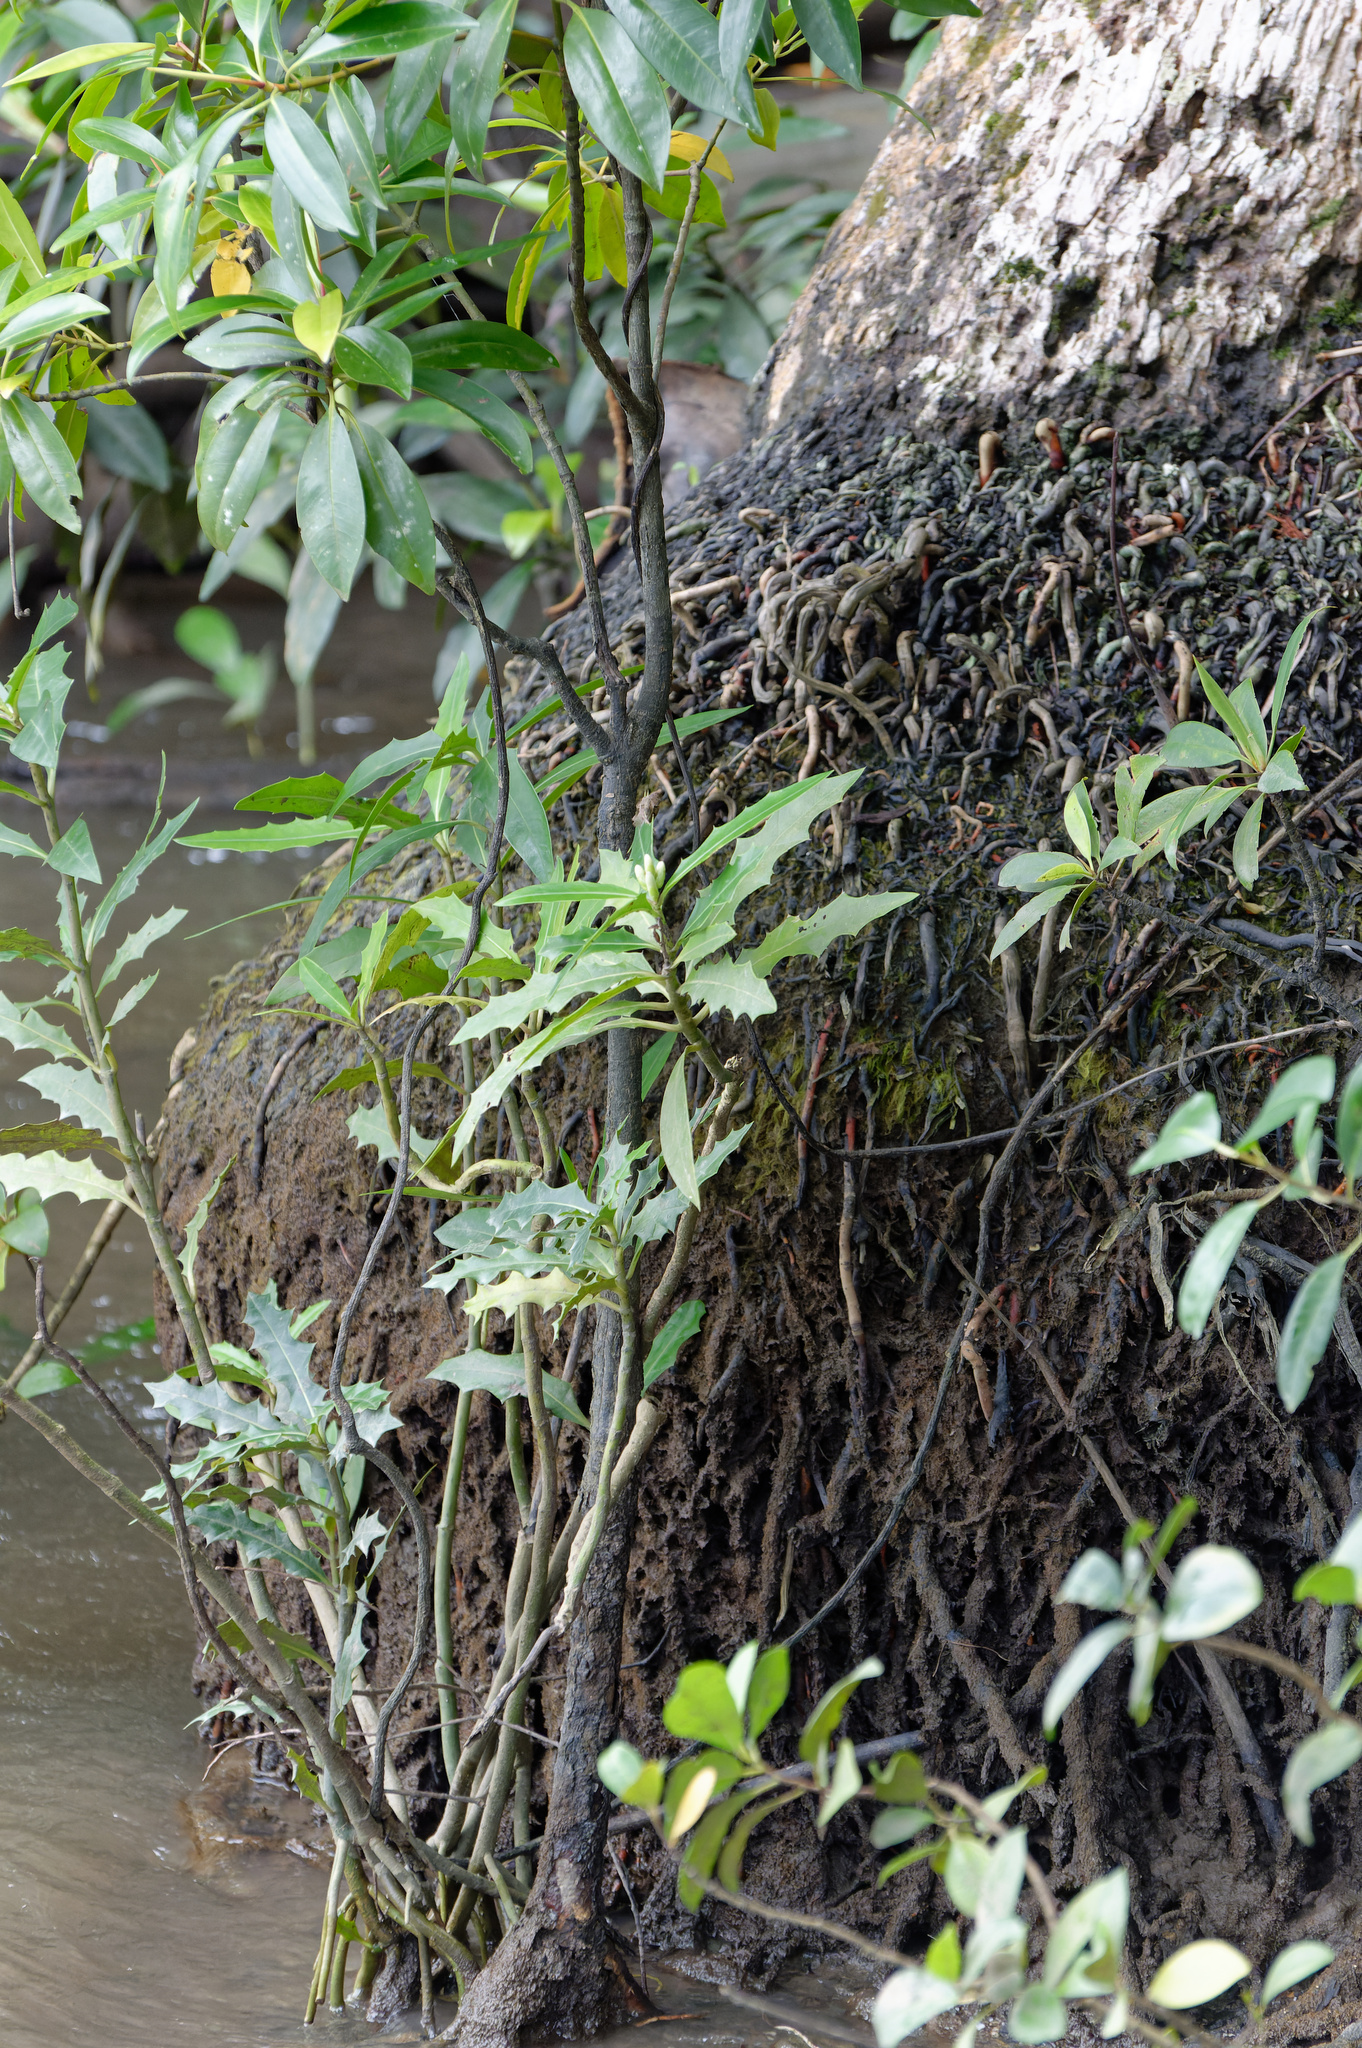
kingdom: Plantae
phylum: Tracheophyta
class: Magnoliopsida
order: Lamiales
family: Acanthaceae
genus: Acanthus
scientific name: Acanthus ilicifolius
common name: Holy mangrove
